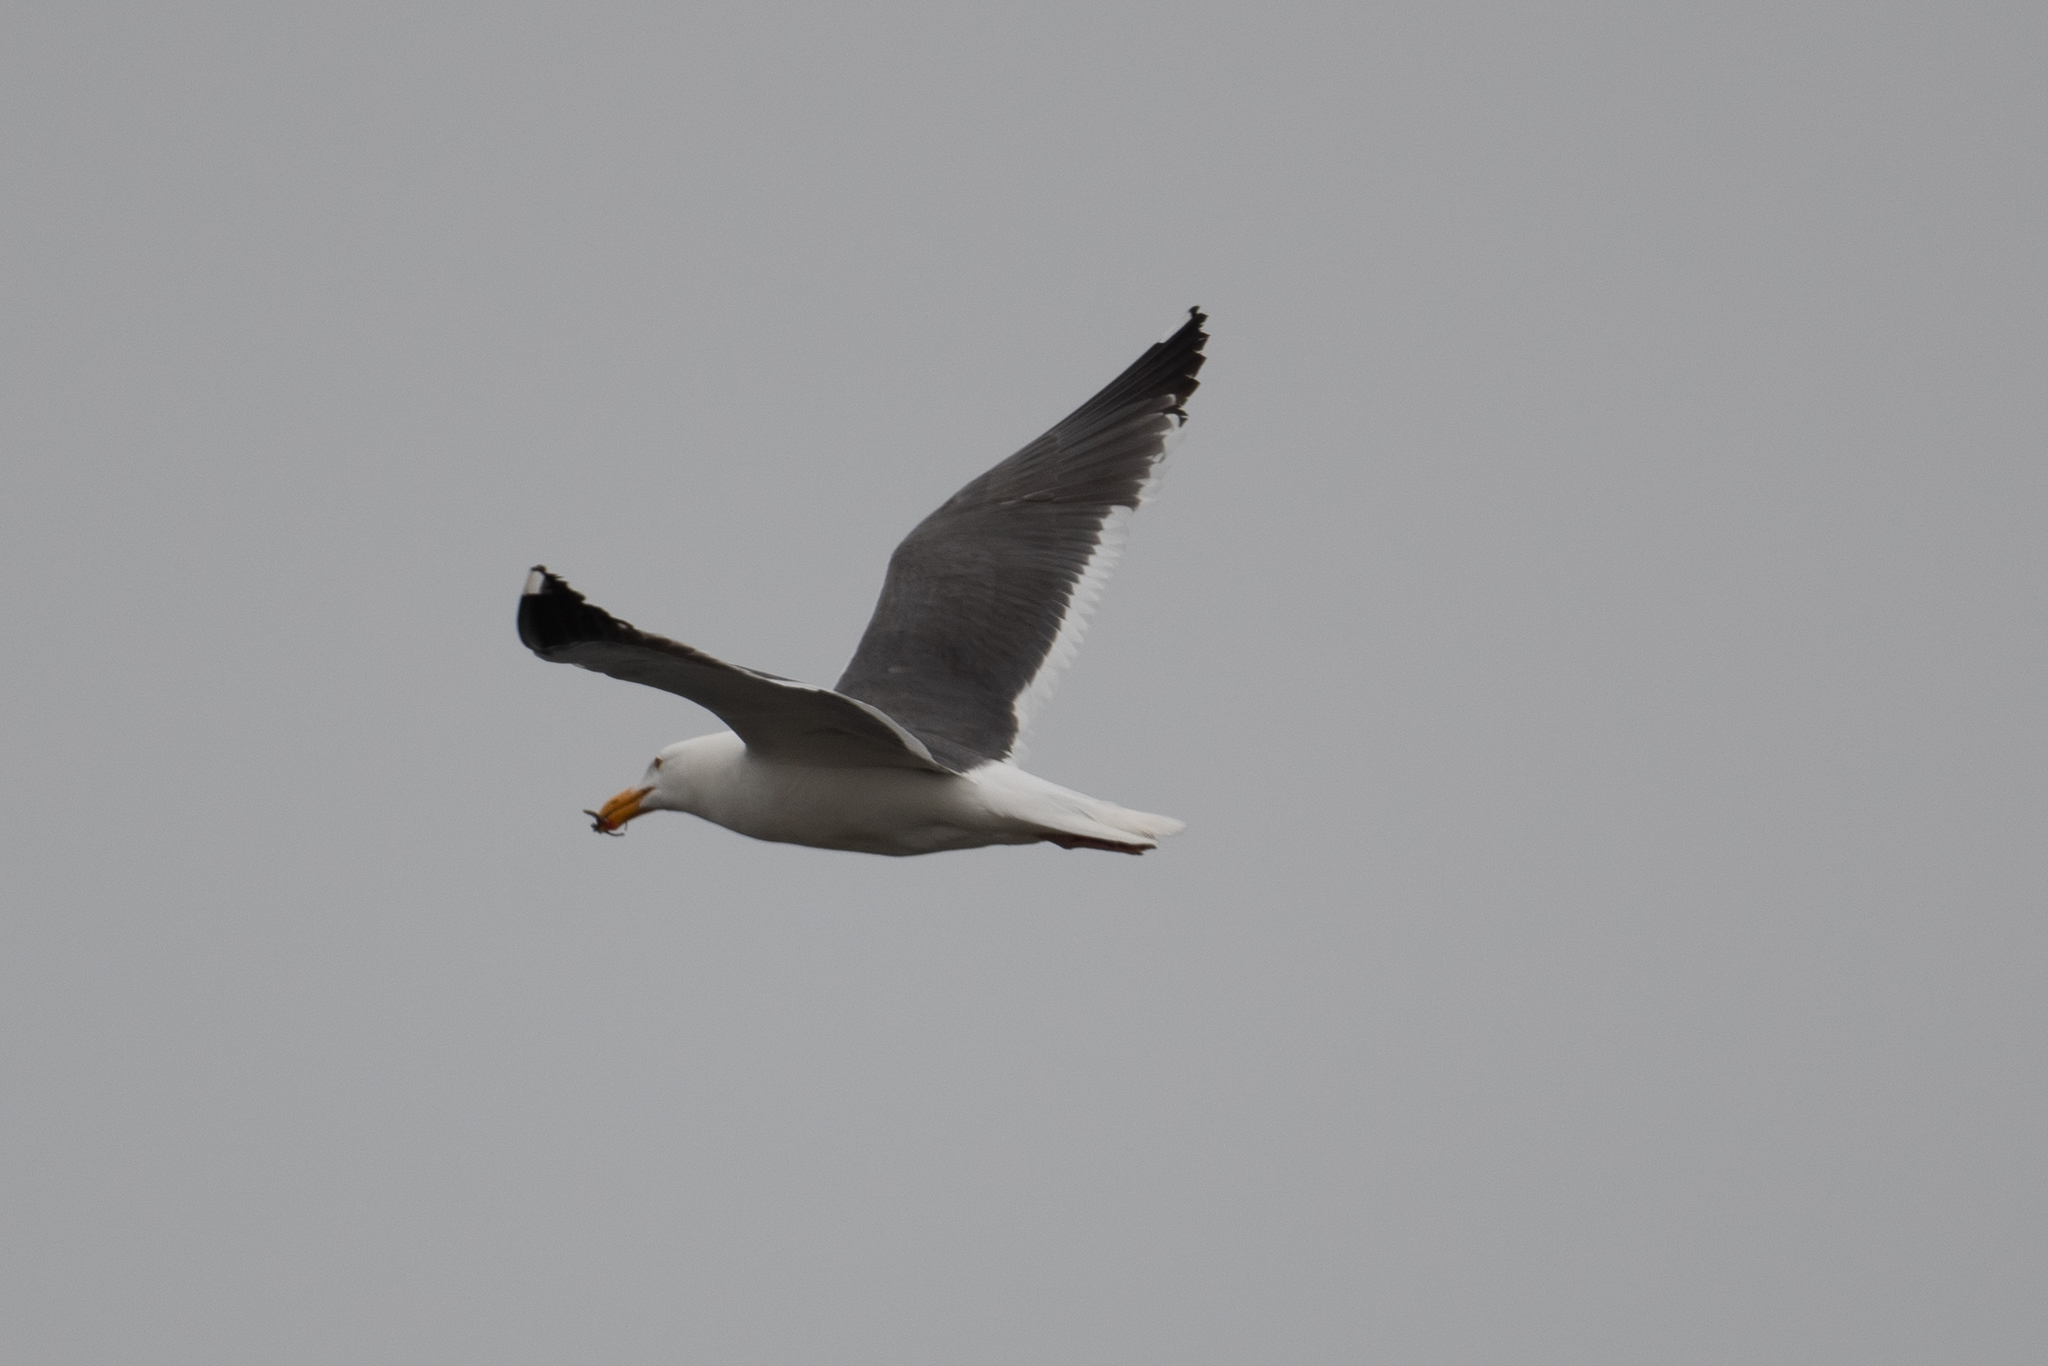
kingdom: Animalia
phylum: Chordata
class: Aves
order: Charadriiformes
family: Laridae
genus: Larus
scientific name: Larus occidentalis
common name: Western gull
